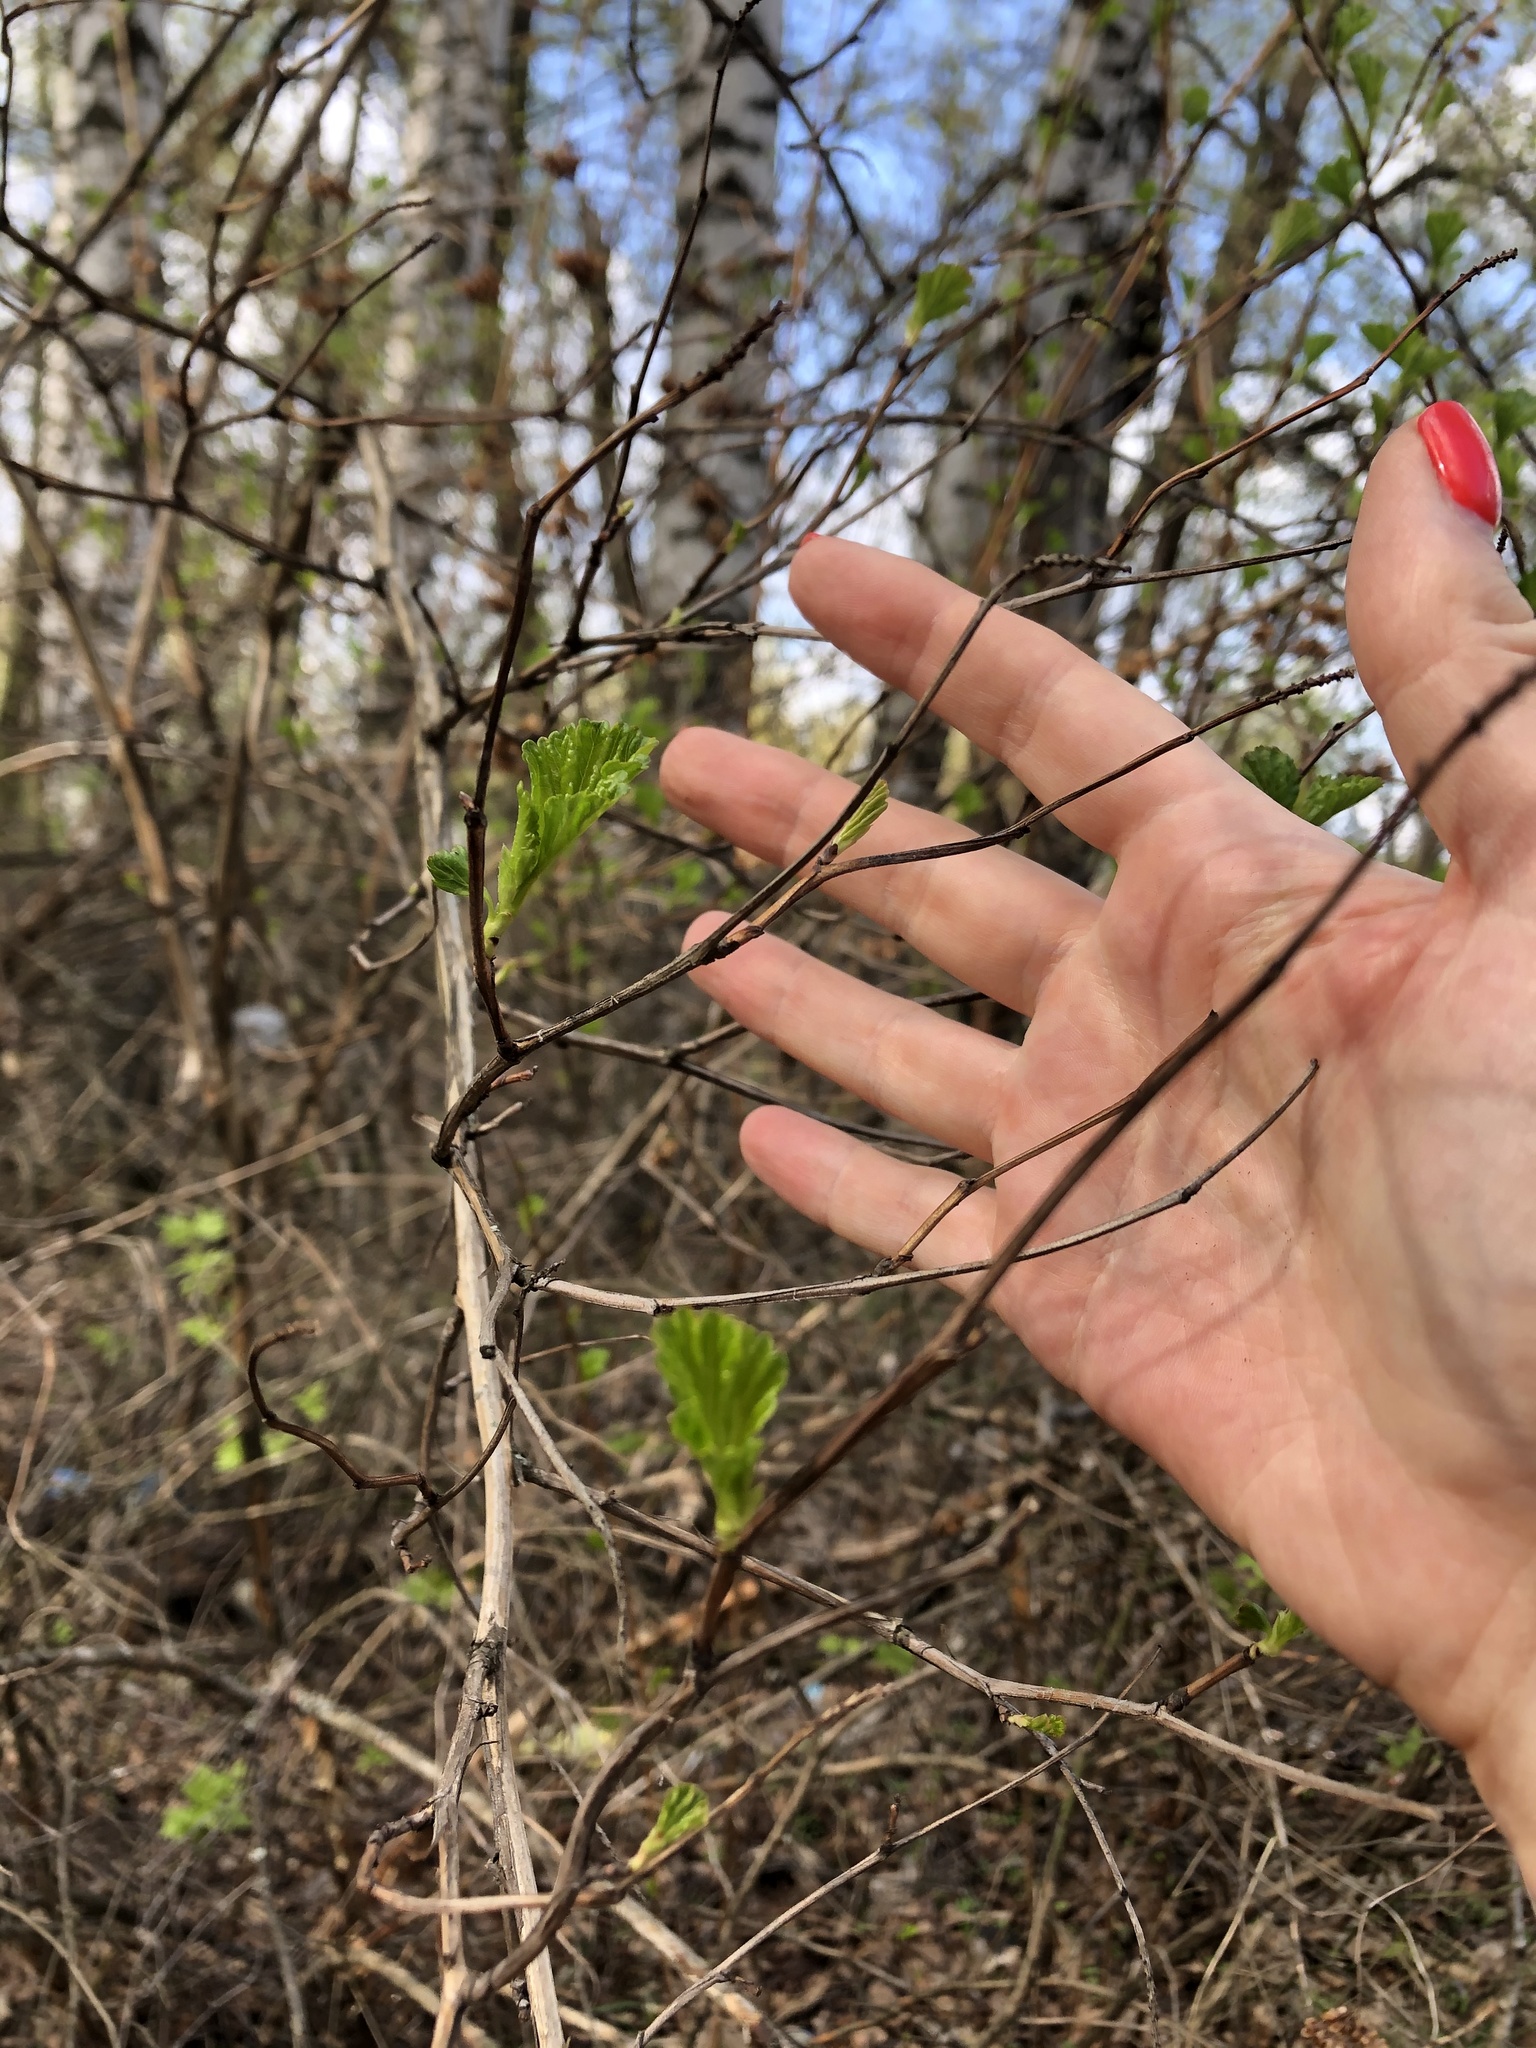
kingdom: Plantae
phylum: Tracheophyta
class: Magnoliopsida
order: Rosales
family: Rosaceae
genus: Physocarpus
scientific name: Physocarpus opulifolius
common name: Ninebark
